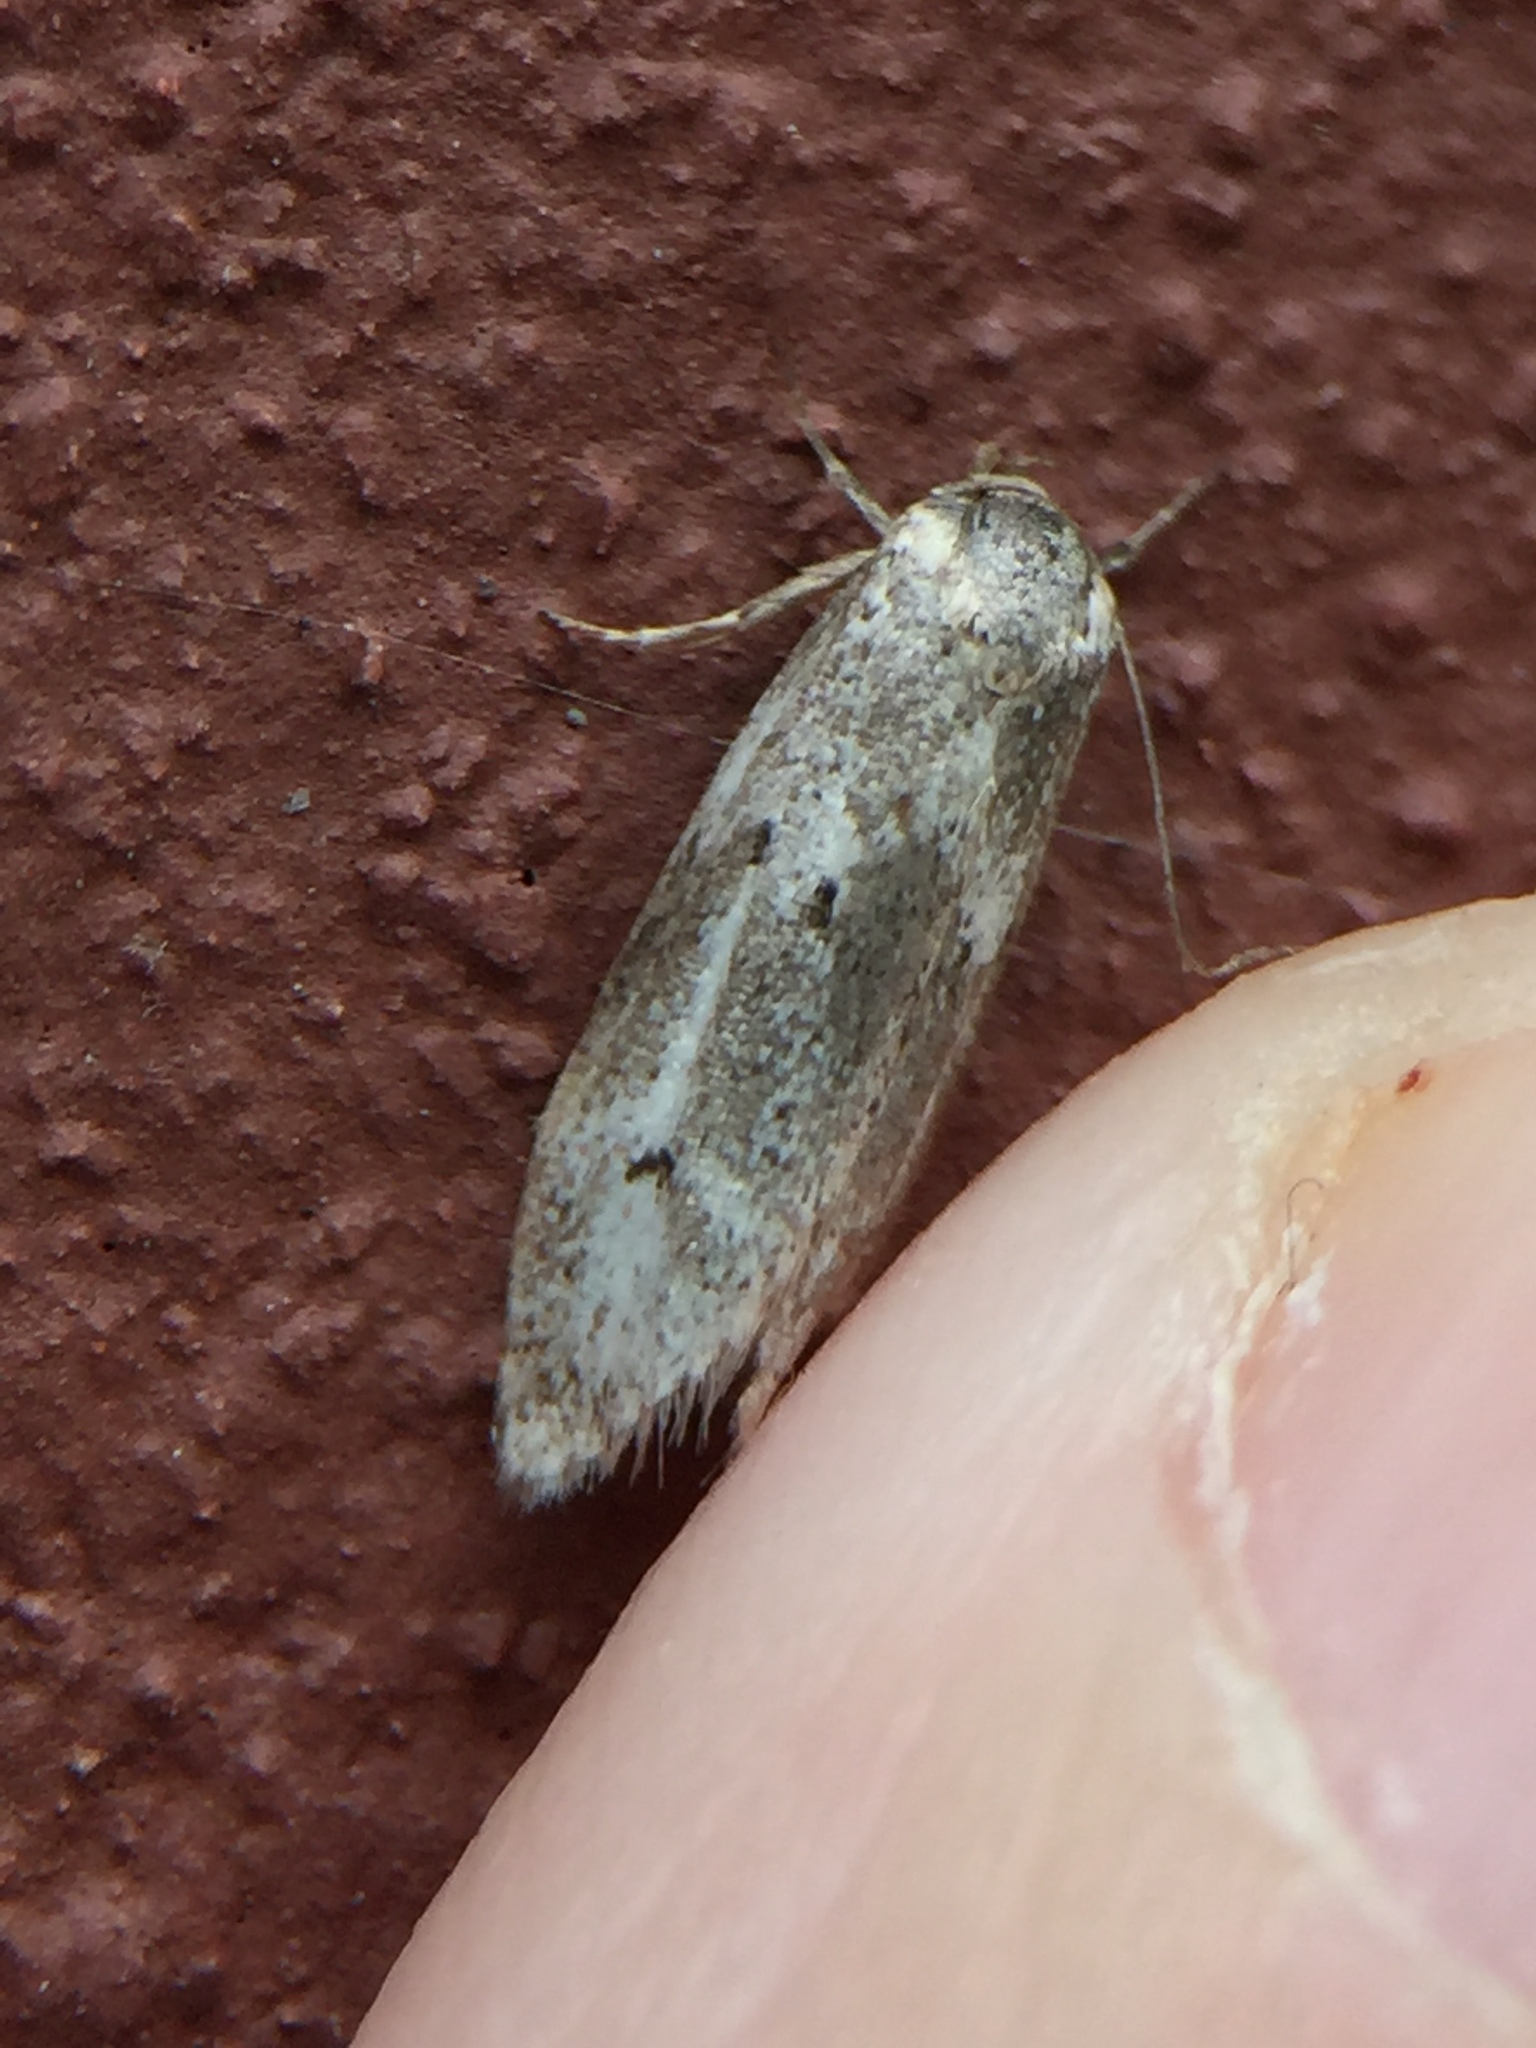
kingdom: Animalia
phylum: Arthropoda
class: Insecta
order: Lepidoptera
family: Oecophoridae
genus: Trachypepla
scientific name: Trachypepla indolescens
